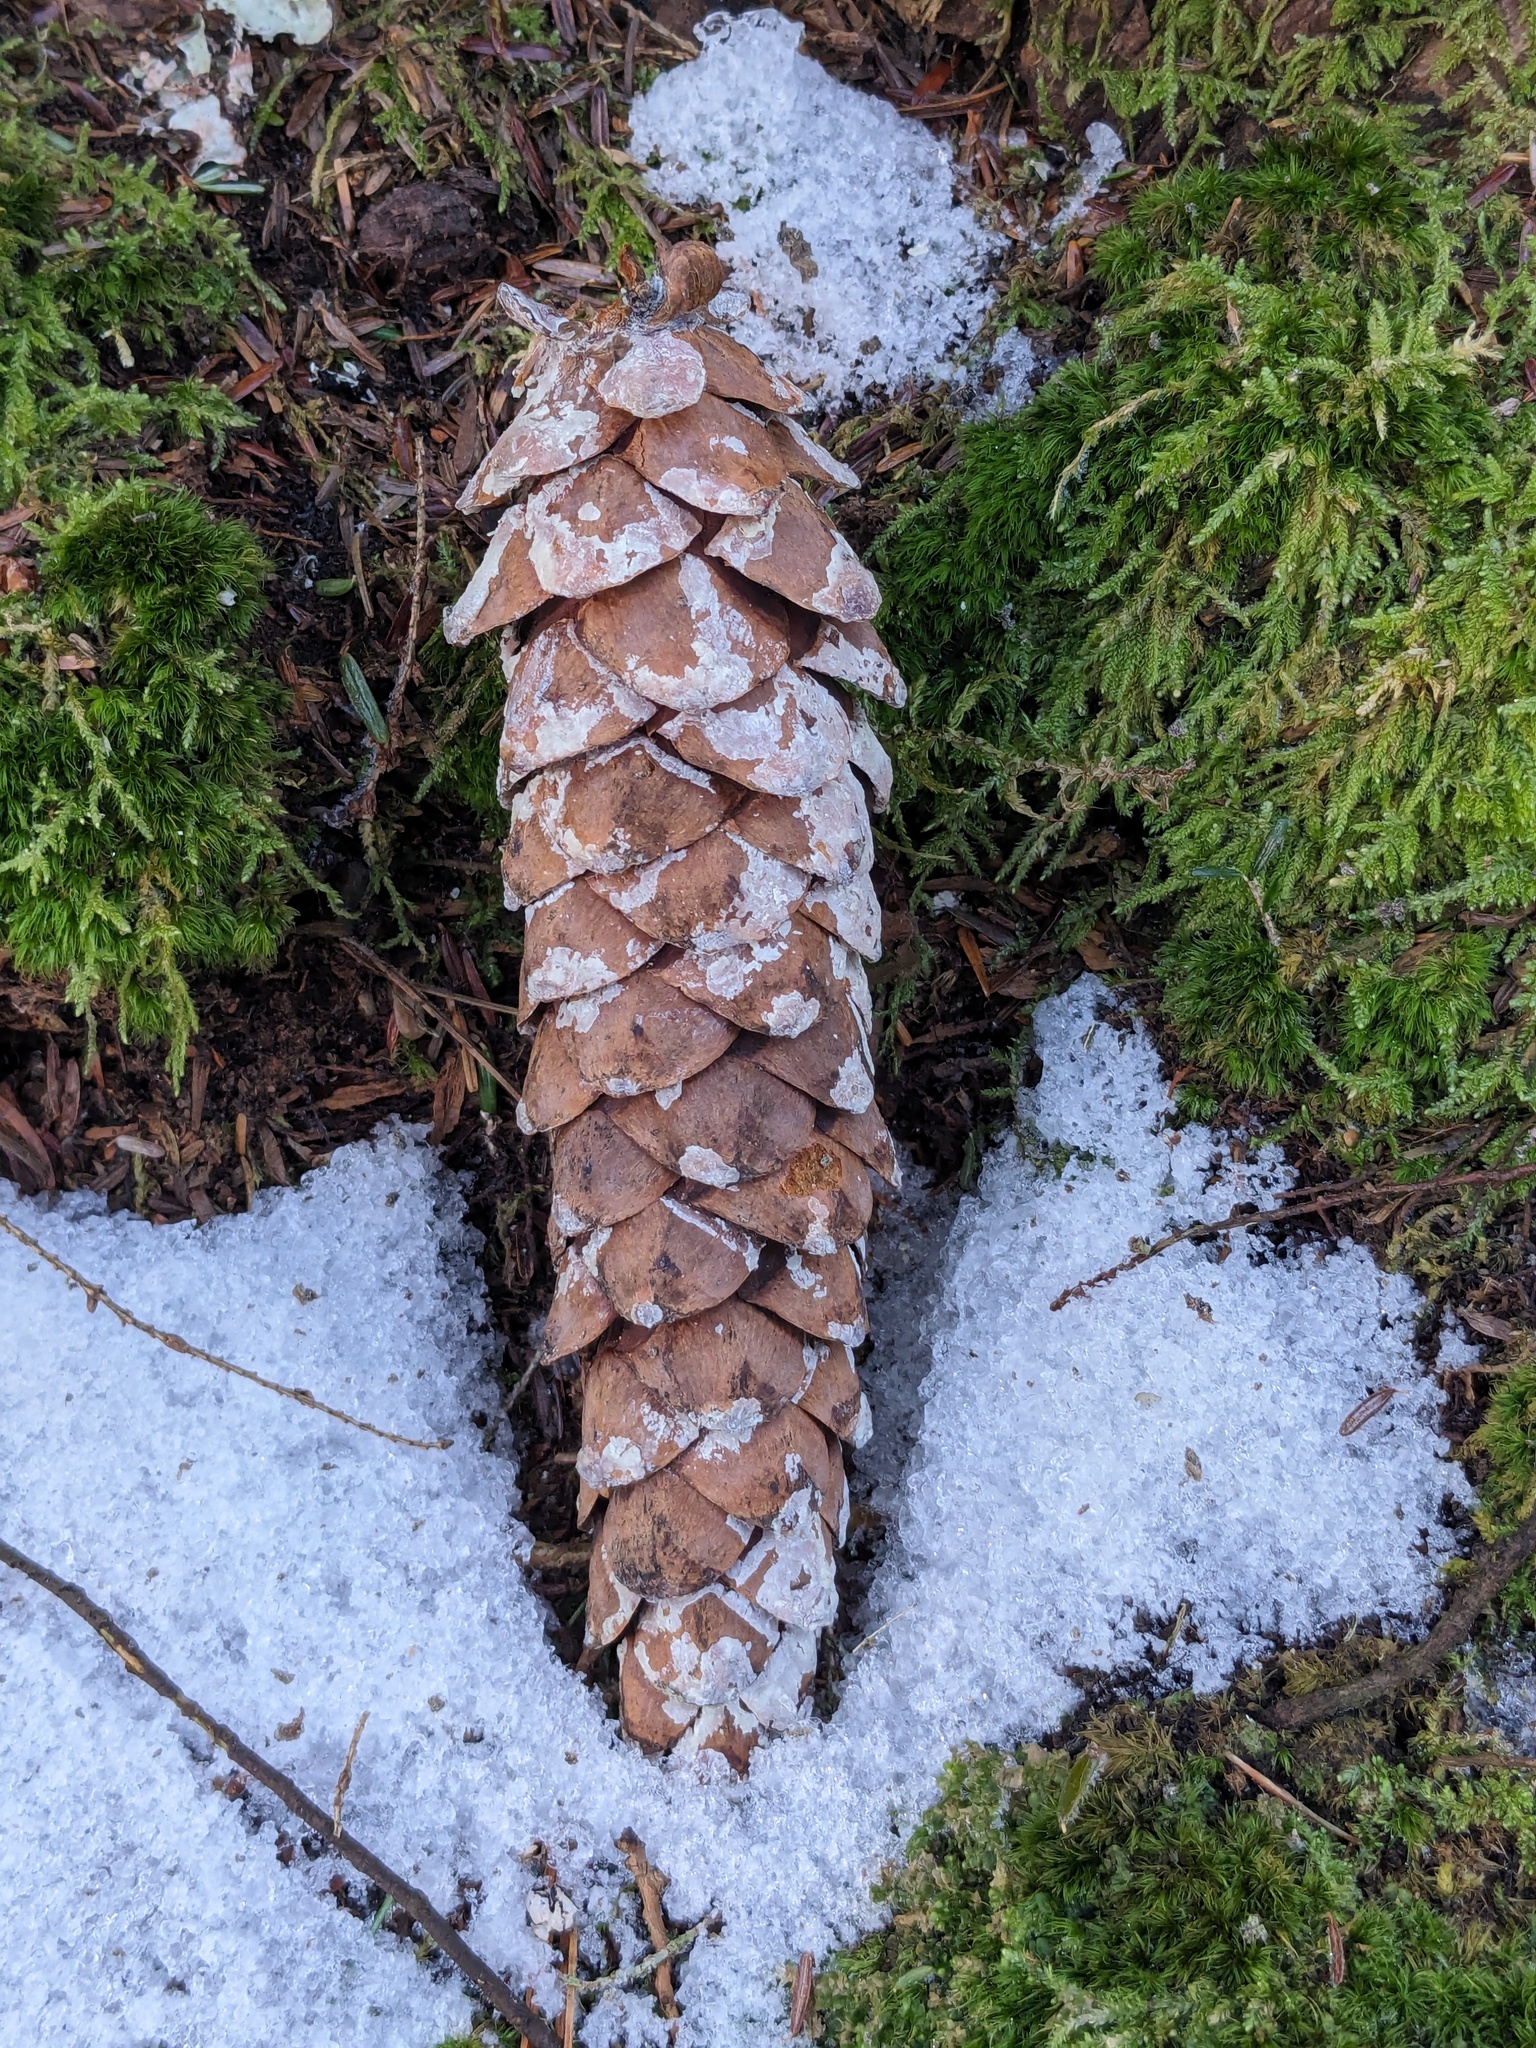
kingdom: Plantae
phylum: Tracheophyta
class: Pinopsida
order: Pinales
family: Pinaceae
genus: Pinus
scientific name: Pinus strobus
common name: Weymouth pine
